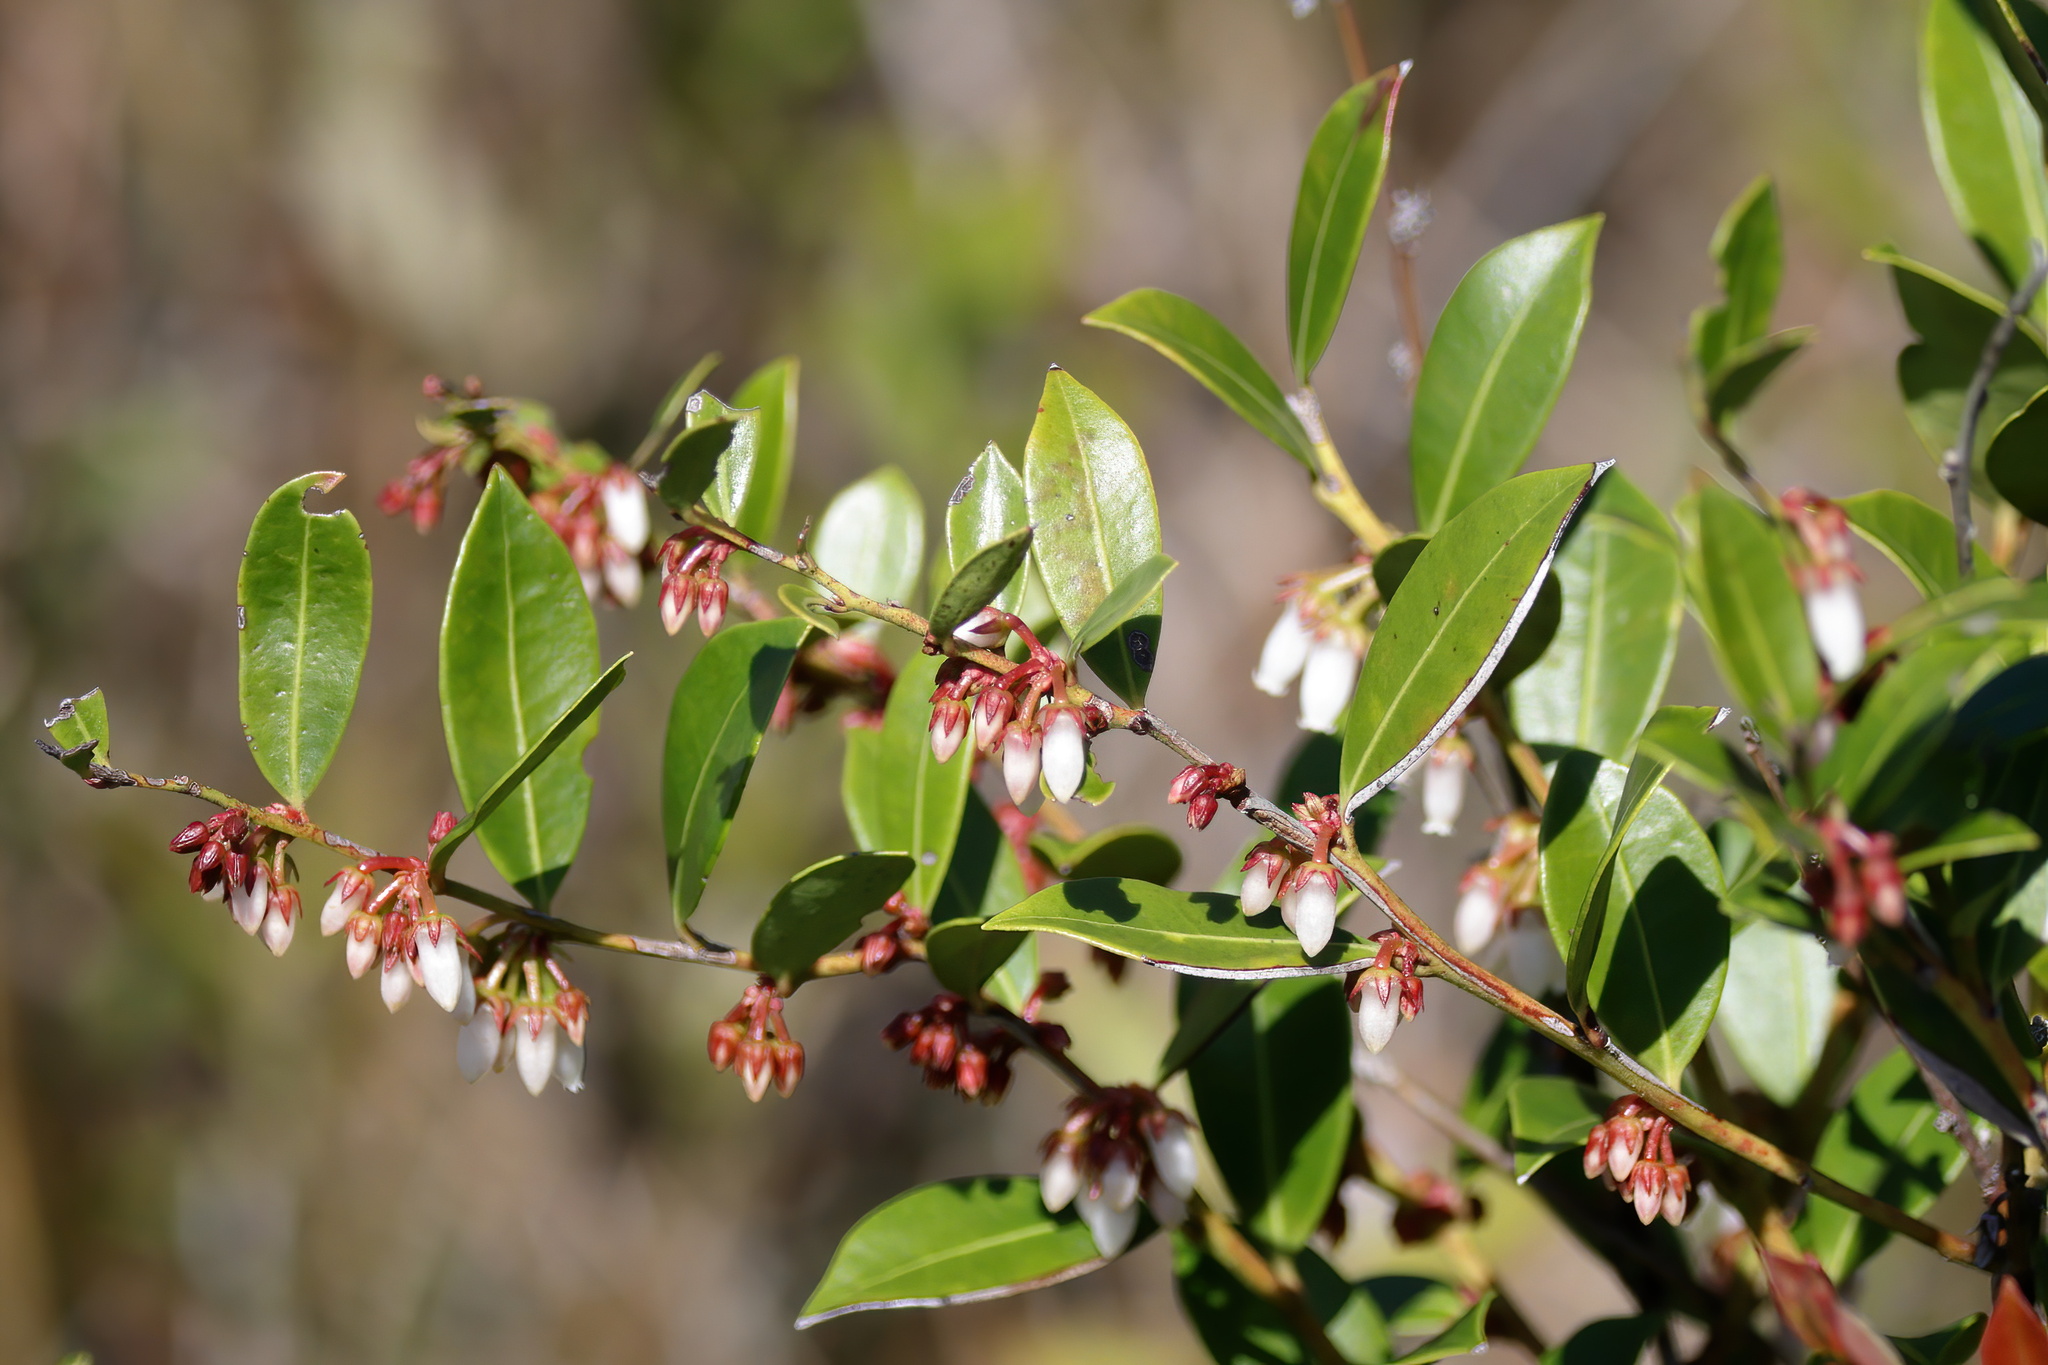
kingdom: Plantae
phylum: Tracheophyta
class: Magnoliopsida
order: Ericales
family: Ericaceae
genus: Lyonia
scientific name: Lyonia lucida
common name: Fetterbush
